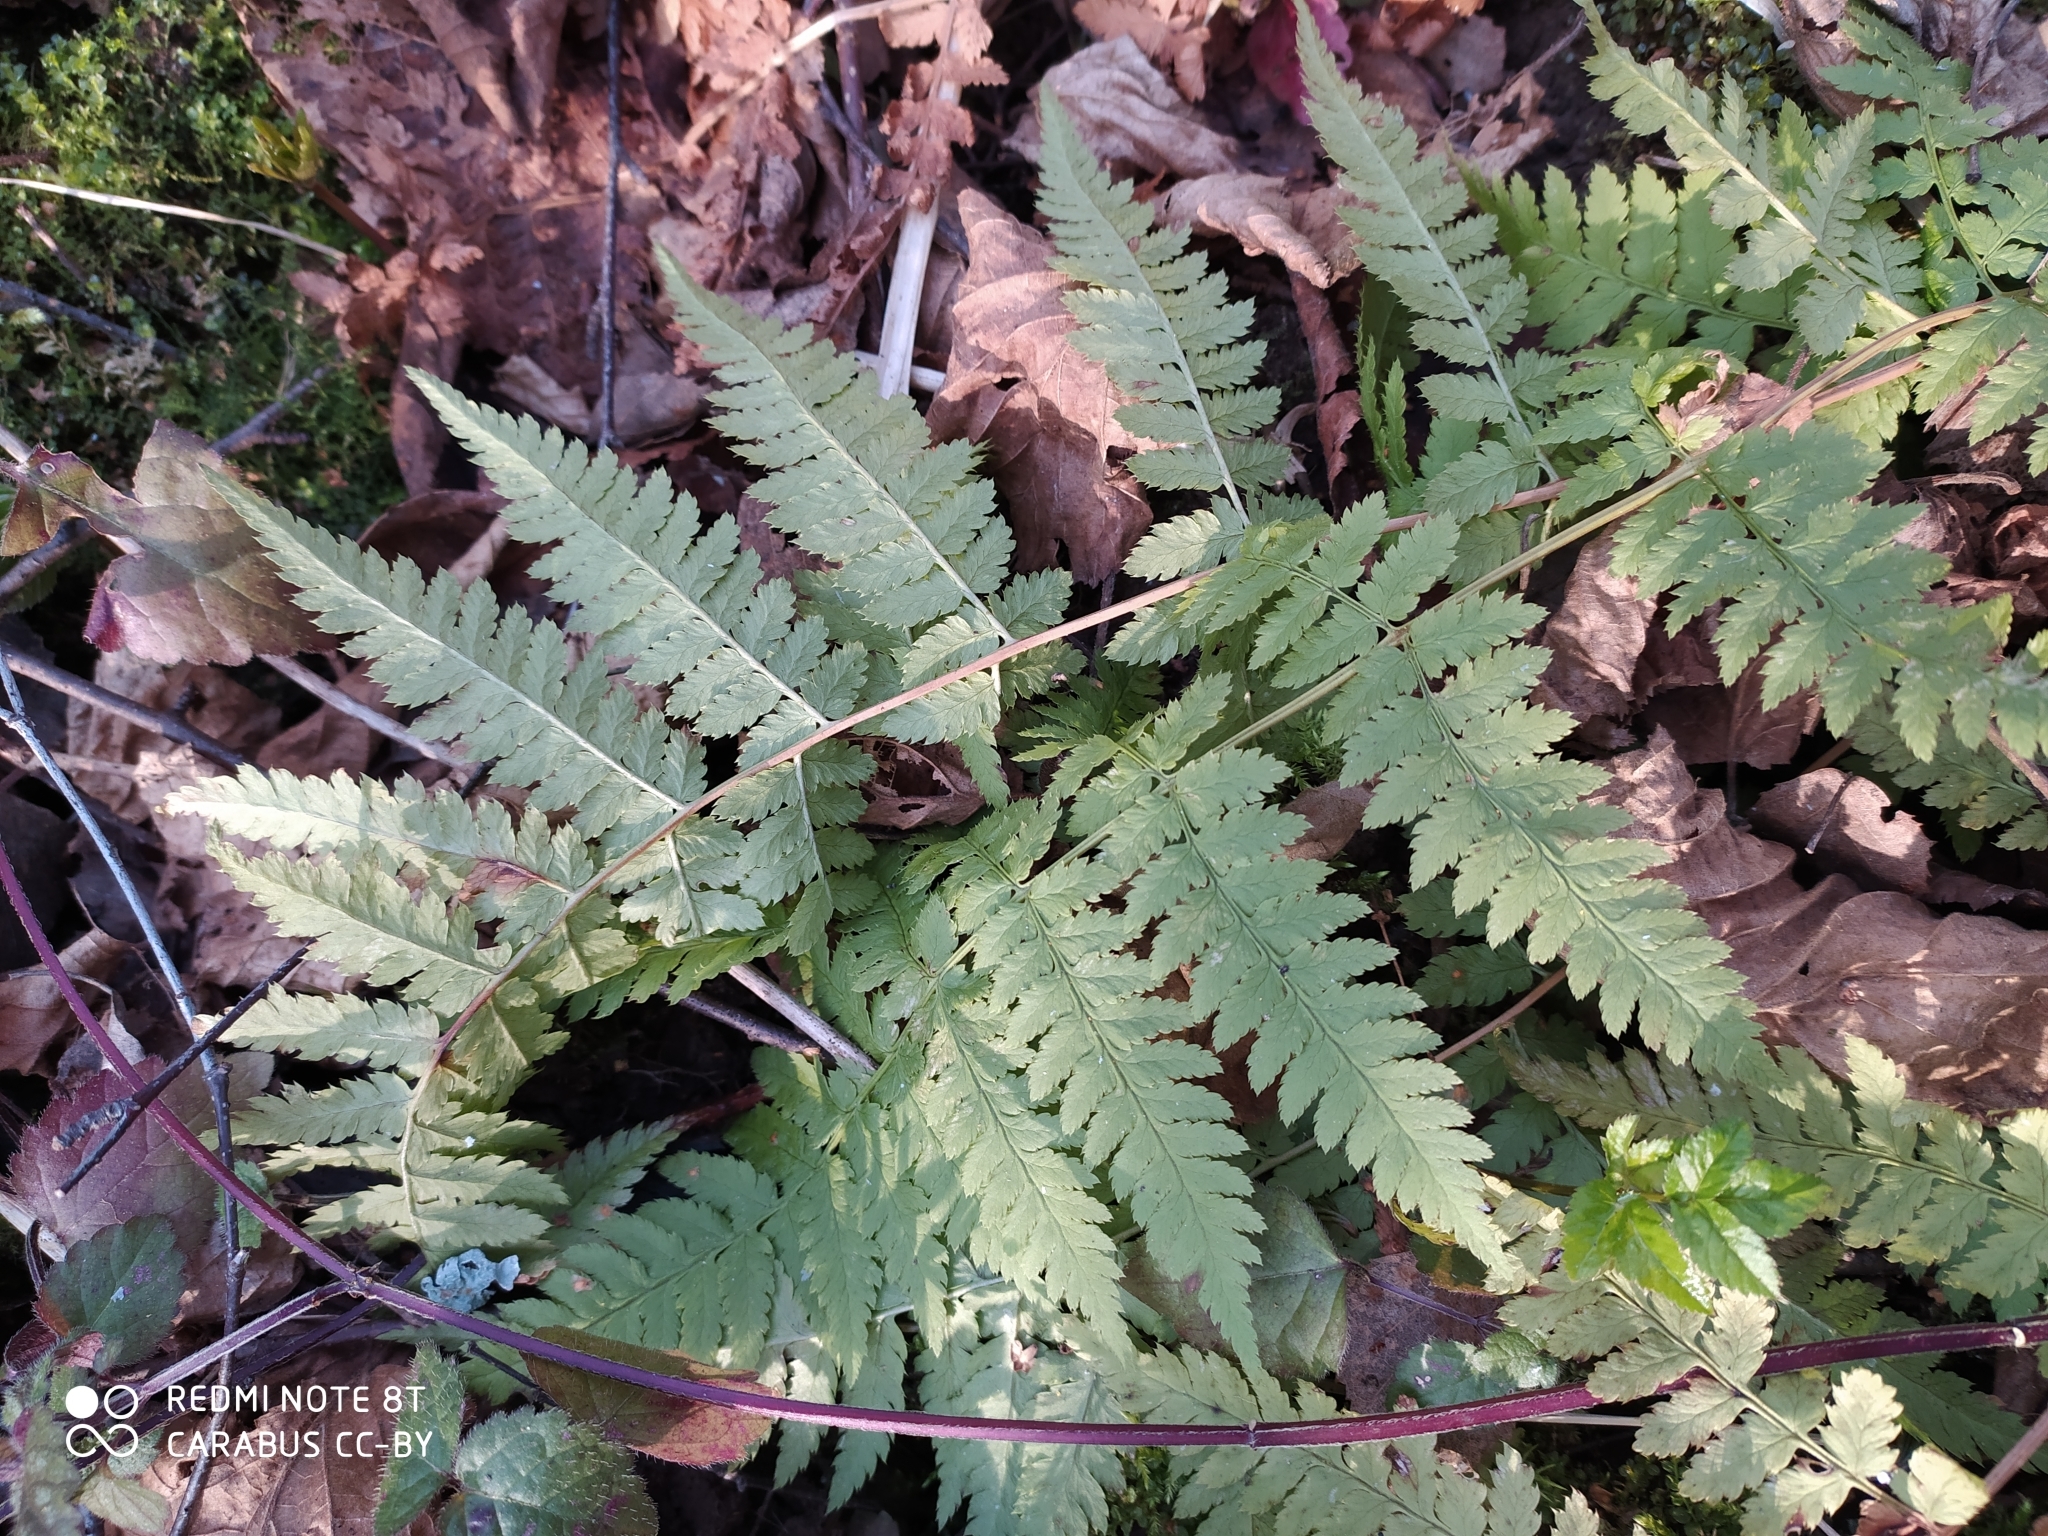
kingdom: Plantae
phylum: Tracheophyta
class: Polypodiopsida
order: Polypodiales
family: Dryopteridaceae
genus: Dryopteris
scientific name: Dryopteris carthusiana
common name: Narrow buckler-fern
